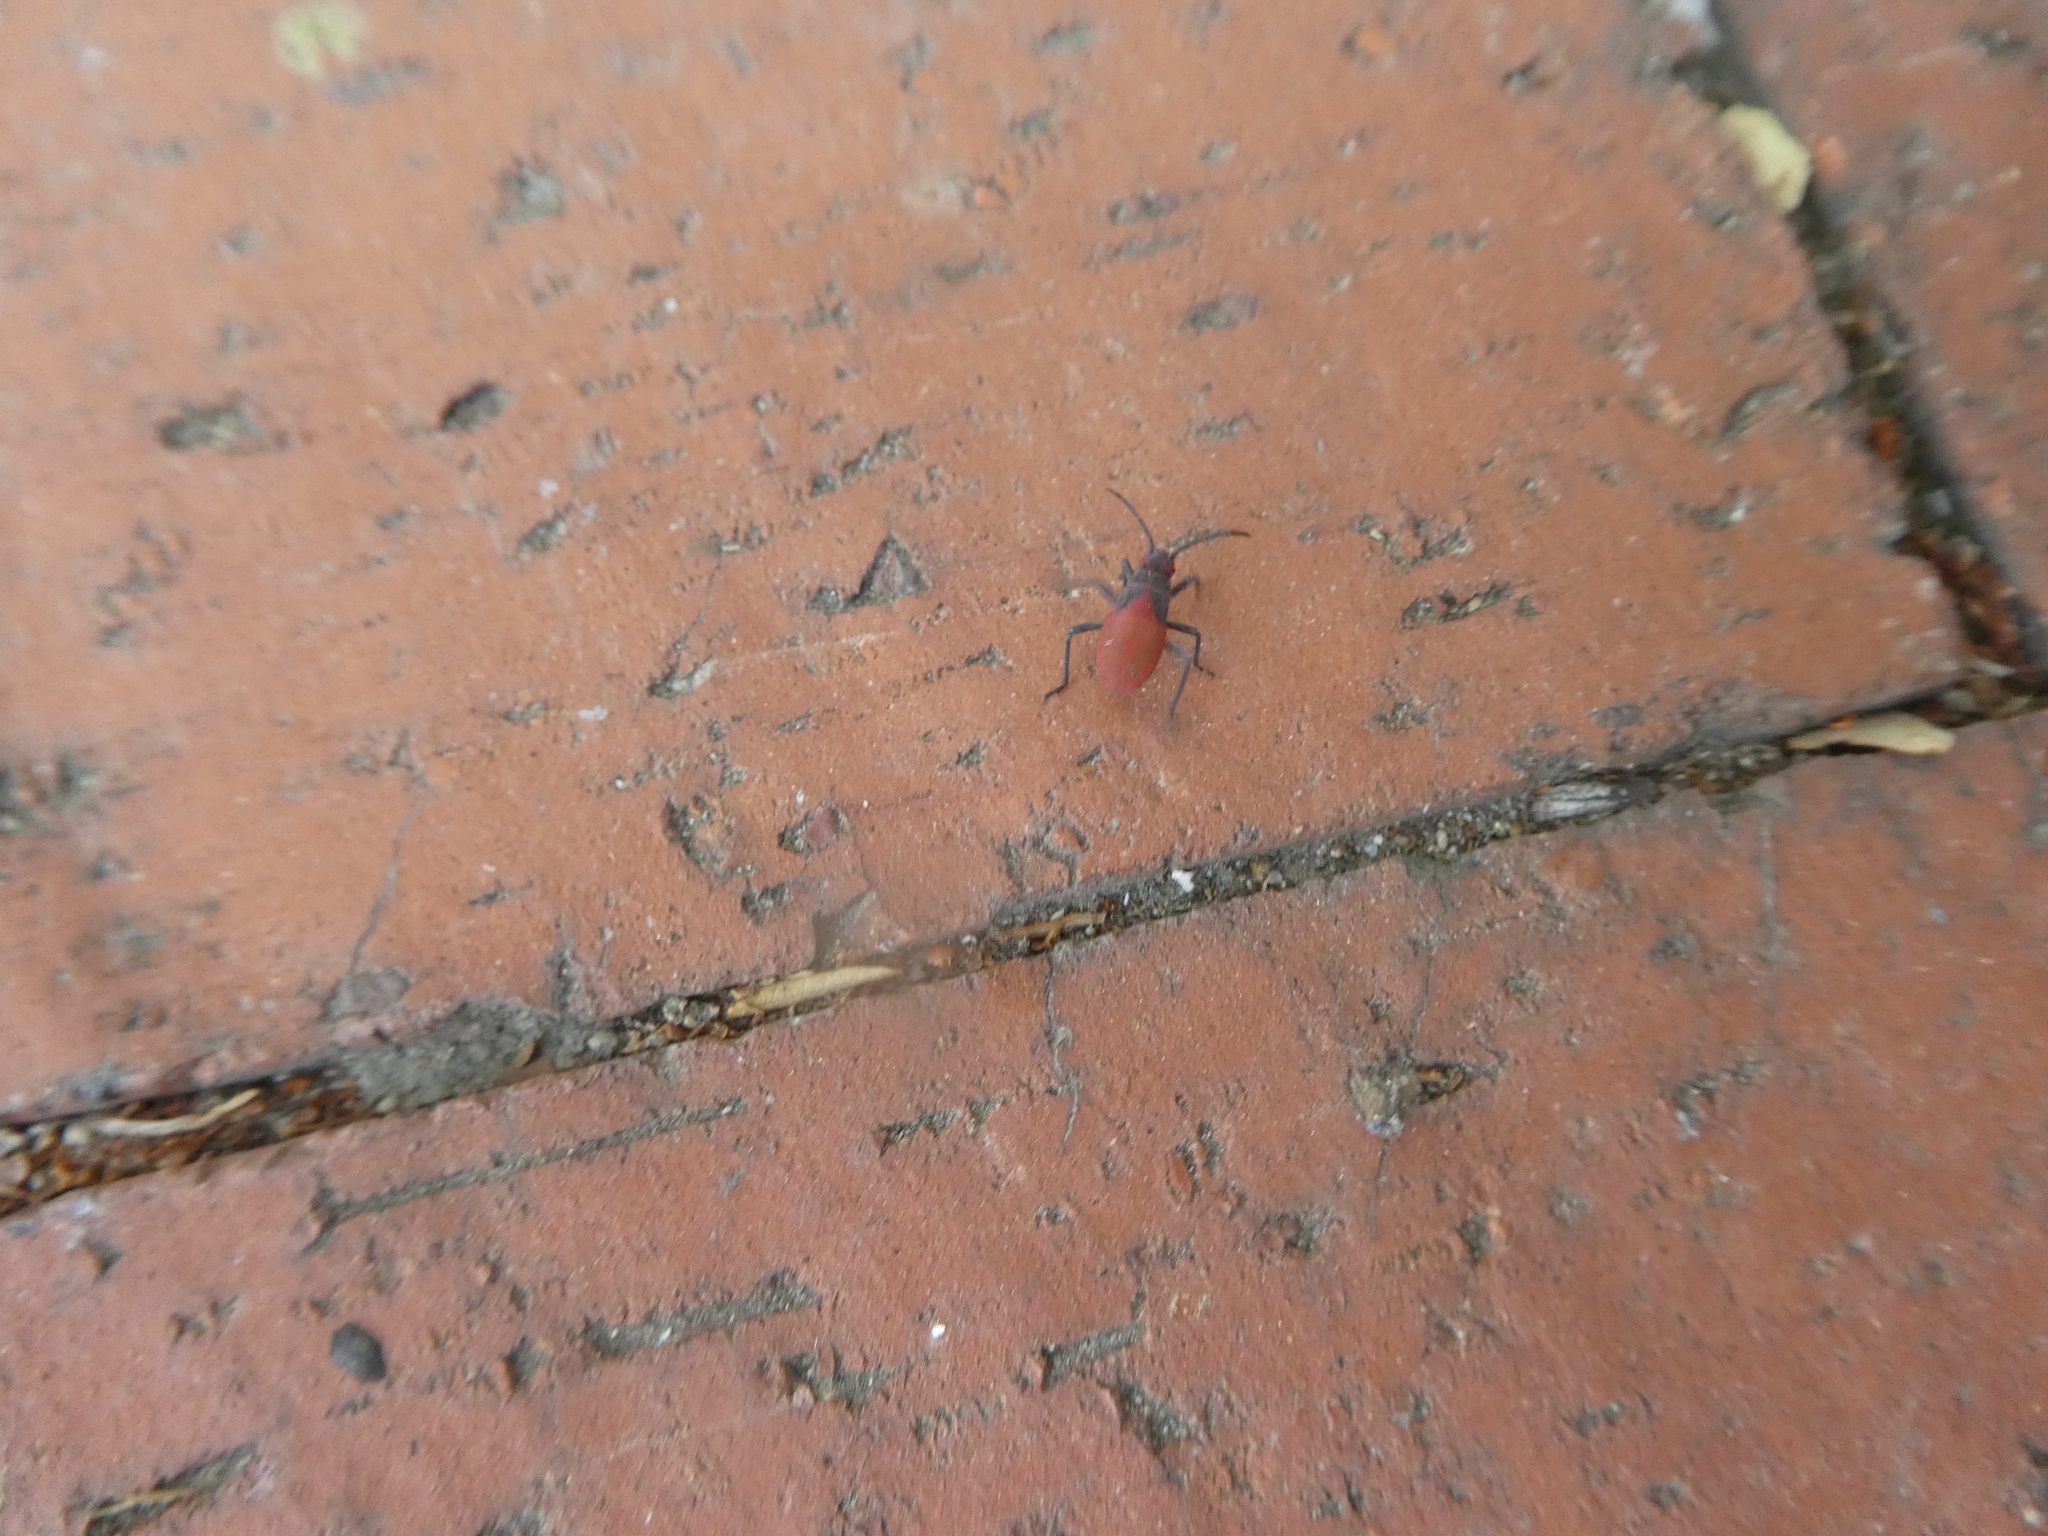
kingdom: Animalia
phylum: Arthropoda
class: Insecta
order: Hemiptera
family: Rhopalidae
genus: Jadera
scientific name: Jadera haematoloma
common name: Red-shouldered bug
